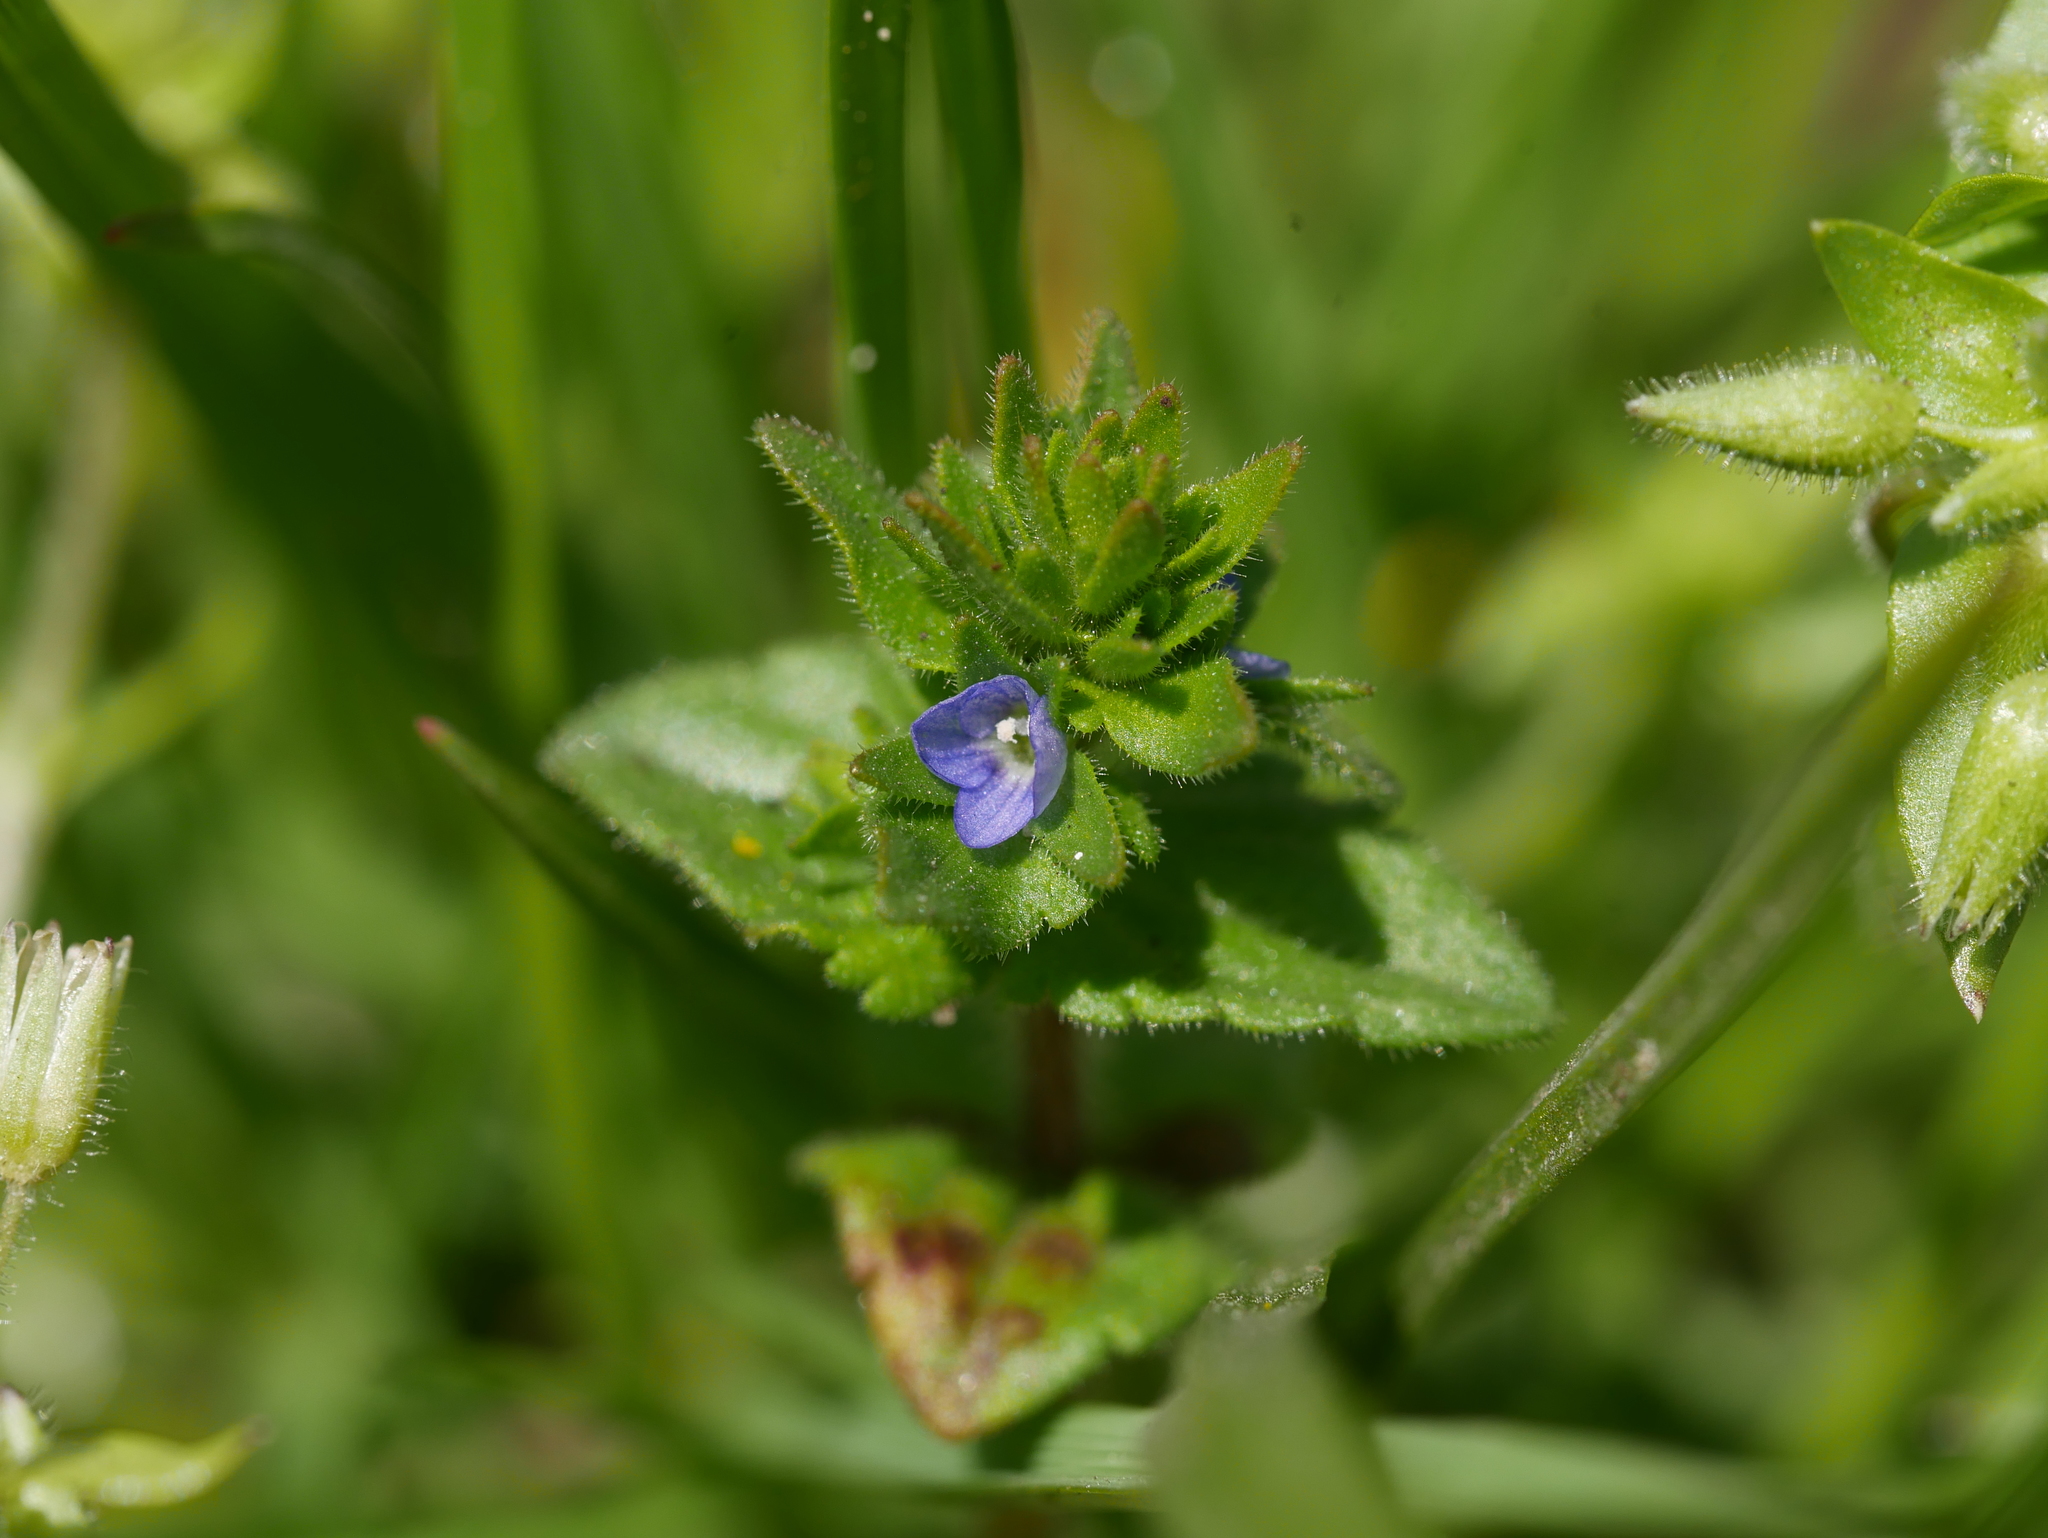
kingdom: Plantae
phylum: Tracheophyta
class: Magnoliopsida
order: Lamiales
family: Plantaginaceae
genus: Veronica
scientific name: Veronica arvensis
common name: Corn speedwell
